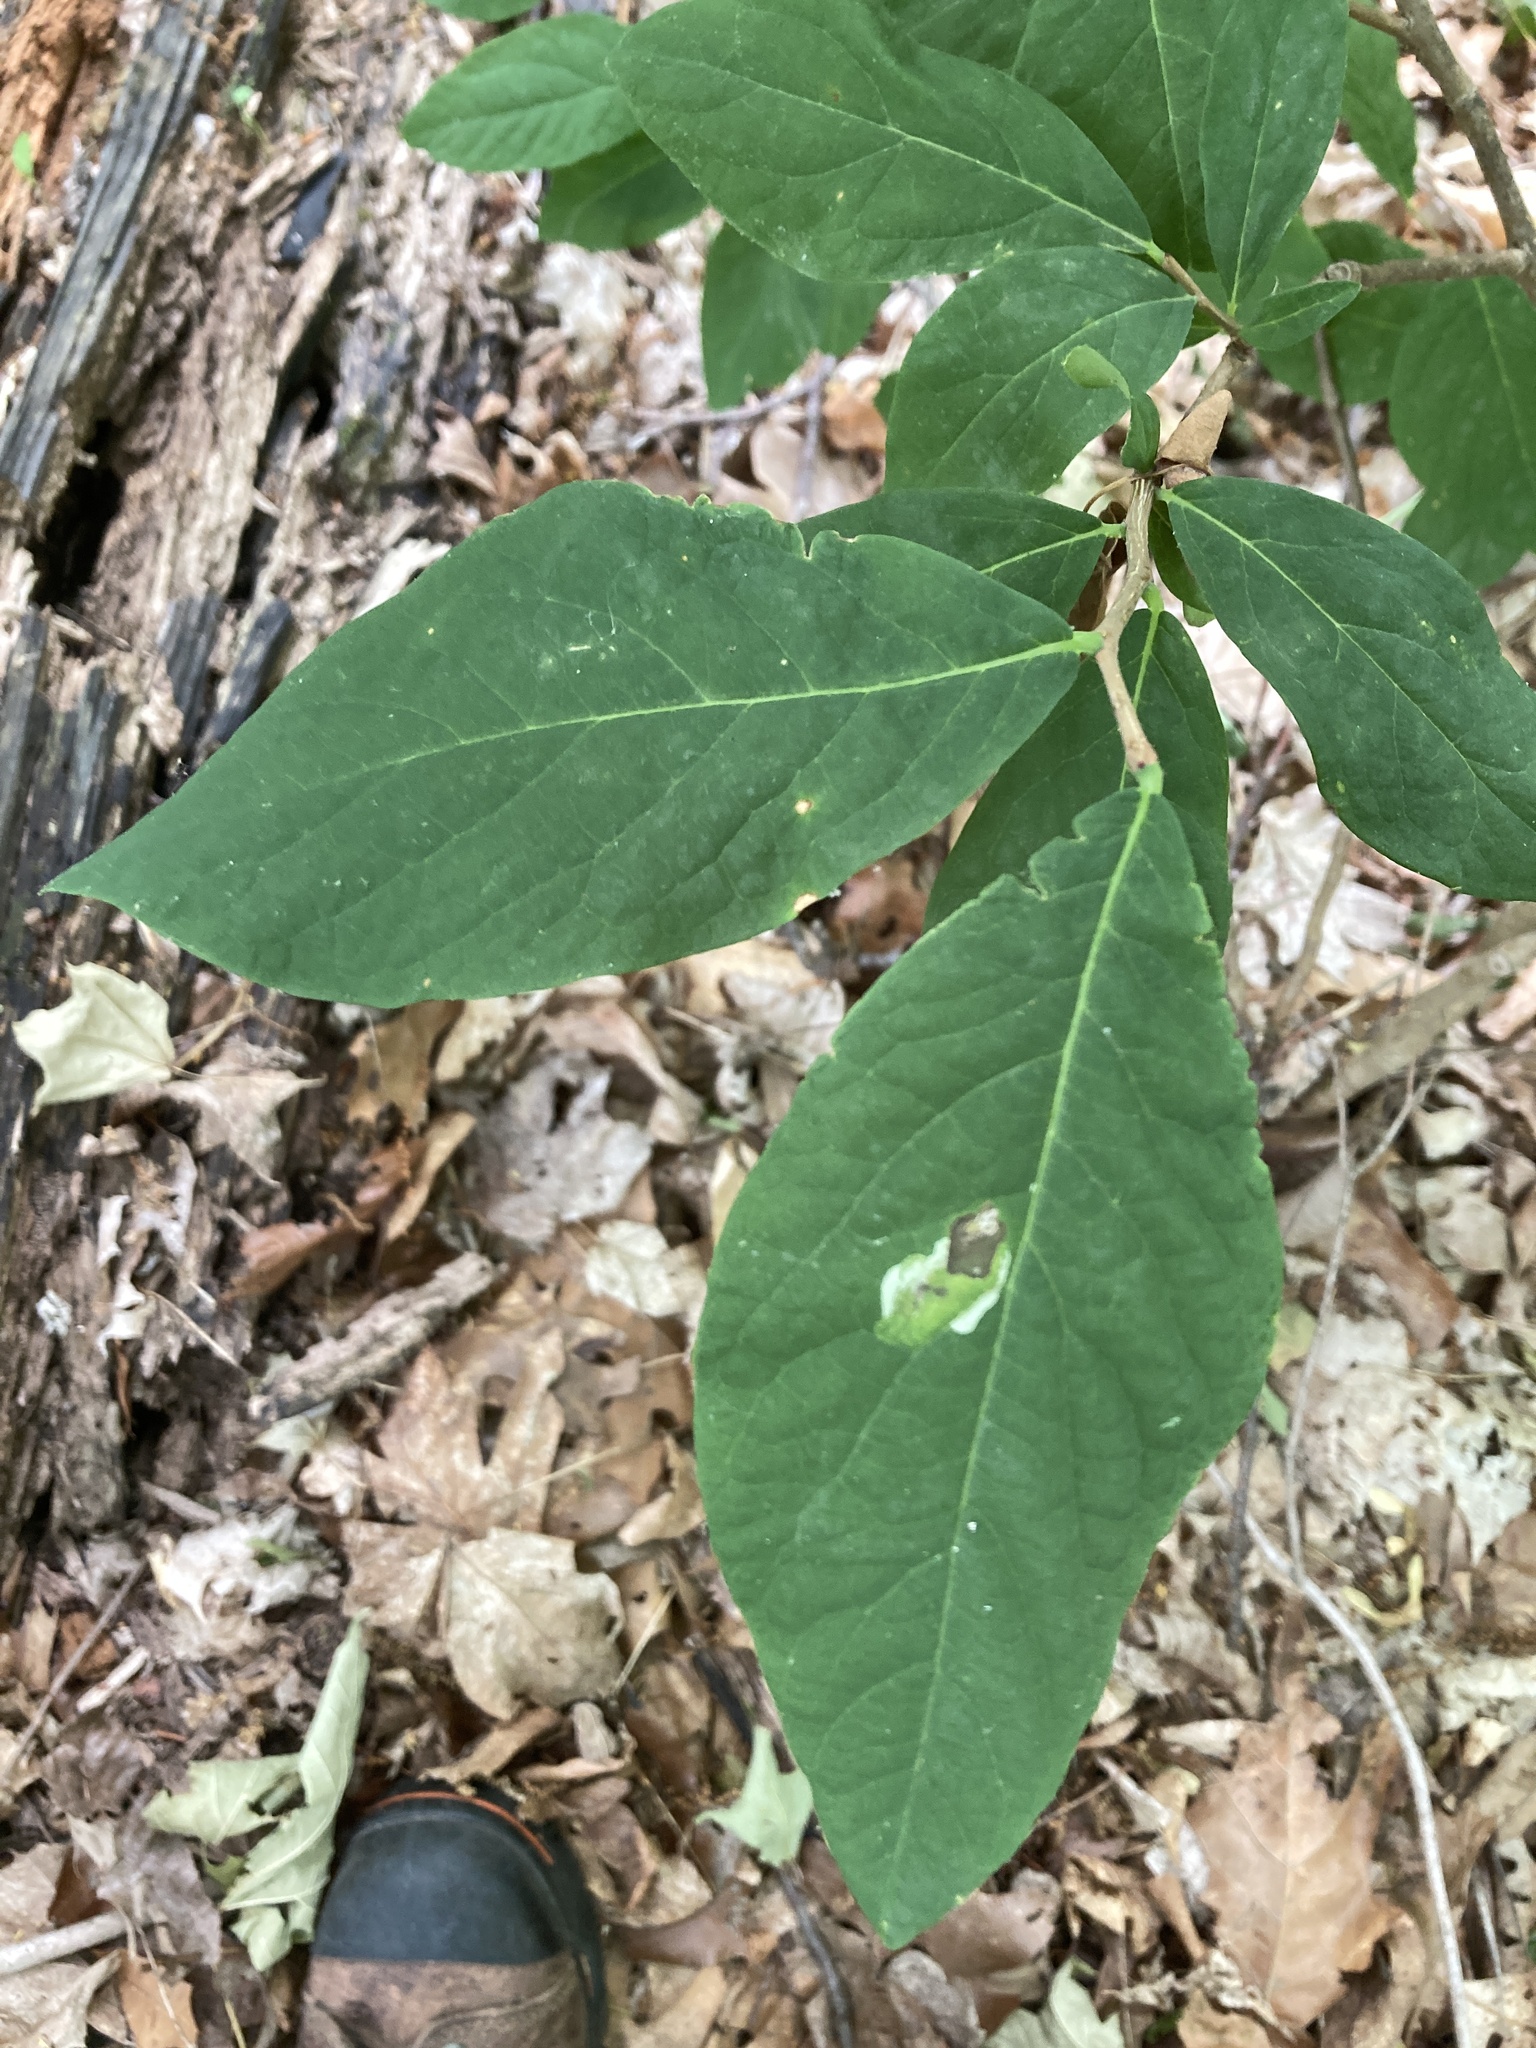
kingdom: Plantae
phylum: Tracheophyta
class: Magnoliopsida
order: Malvales
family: Thymelaeaceae
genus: Dirca
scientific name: Dirca palustris
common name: Leatherwood
